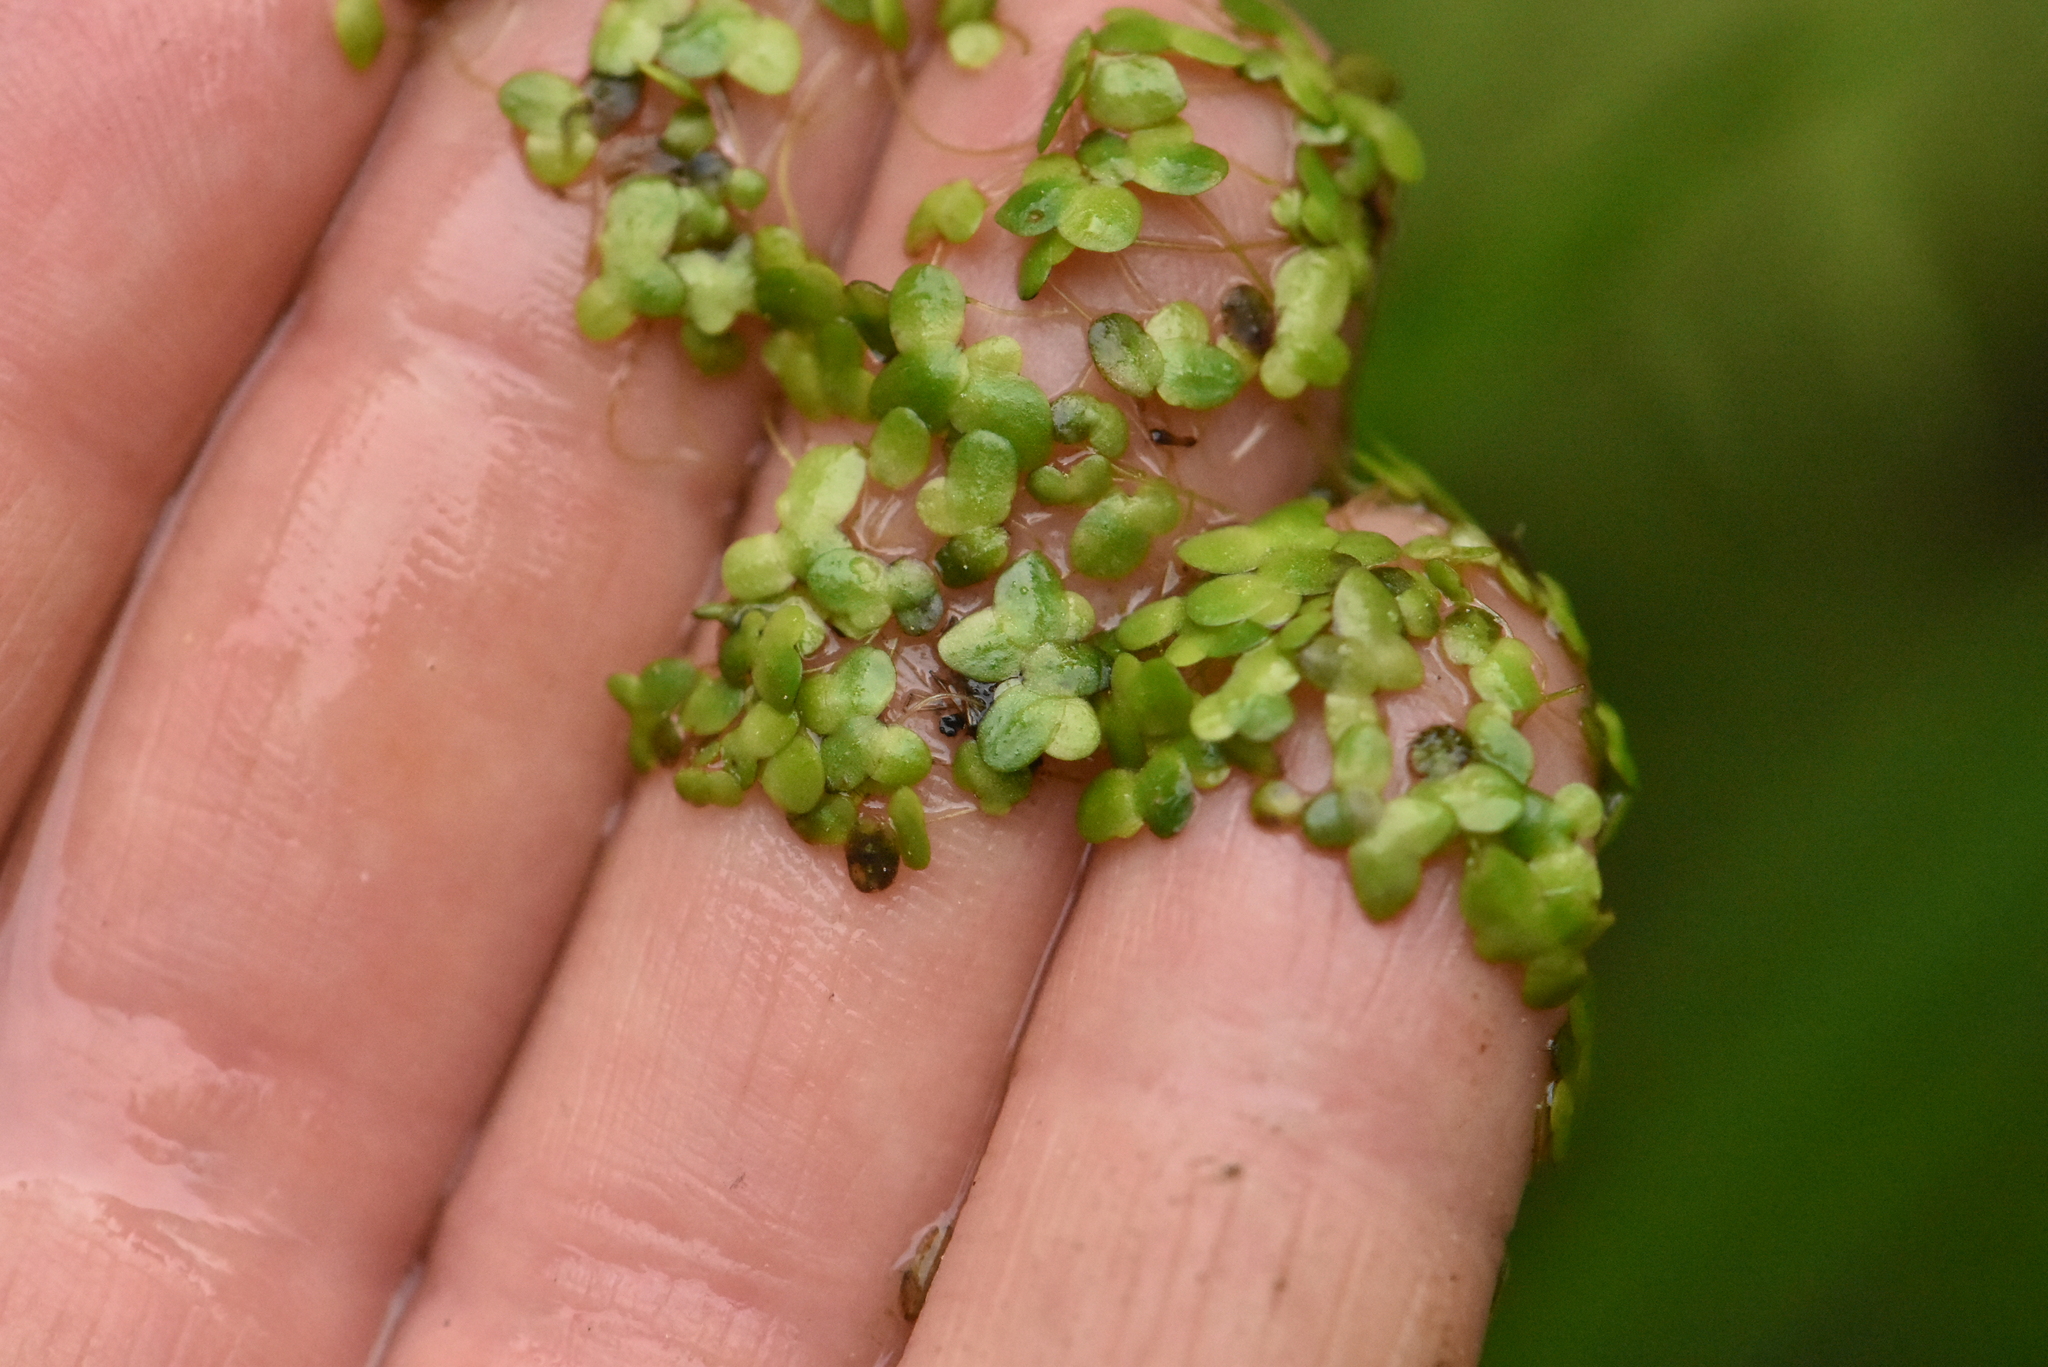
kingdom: Plantae
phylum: Tracheophyta
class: Liliopsida
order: Alismatales
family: Araceae
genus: Lemna
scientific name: Lemna turionifera
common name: Perennial duckweed
